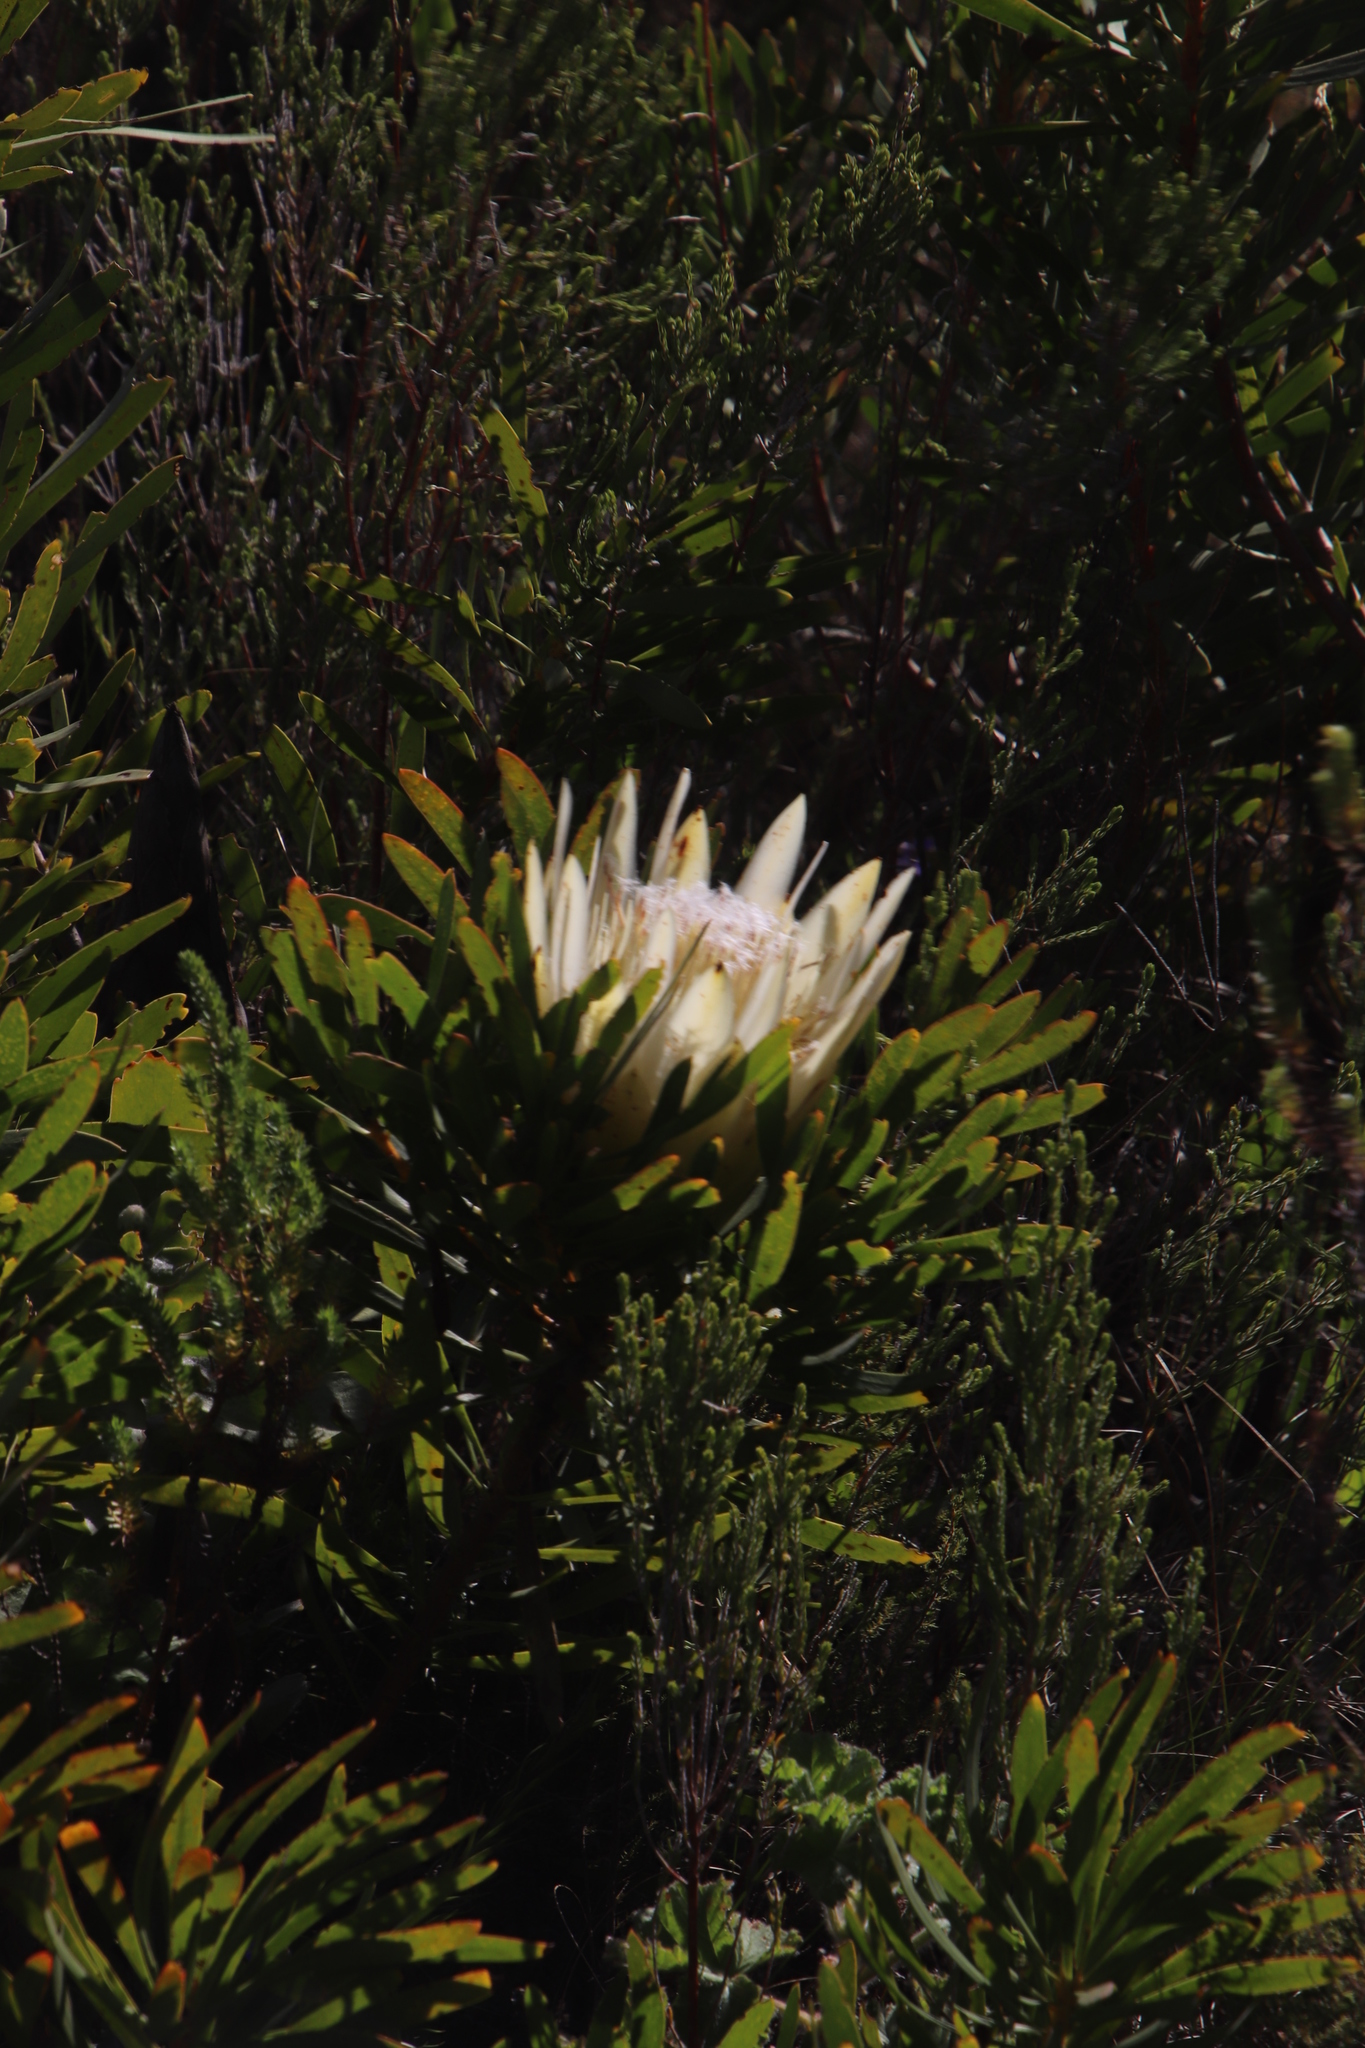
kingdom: Plantae
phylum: Tracheophyta
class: Magnoliopsida
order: Proteales
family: Proteaceae
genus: Protea
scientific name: Protea repens
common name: Sugarbush
